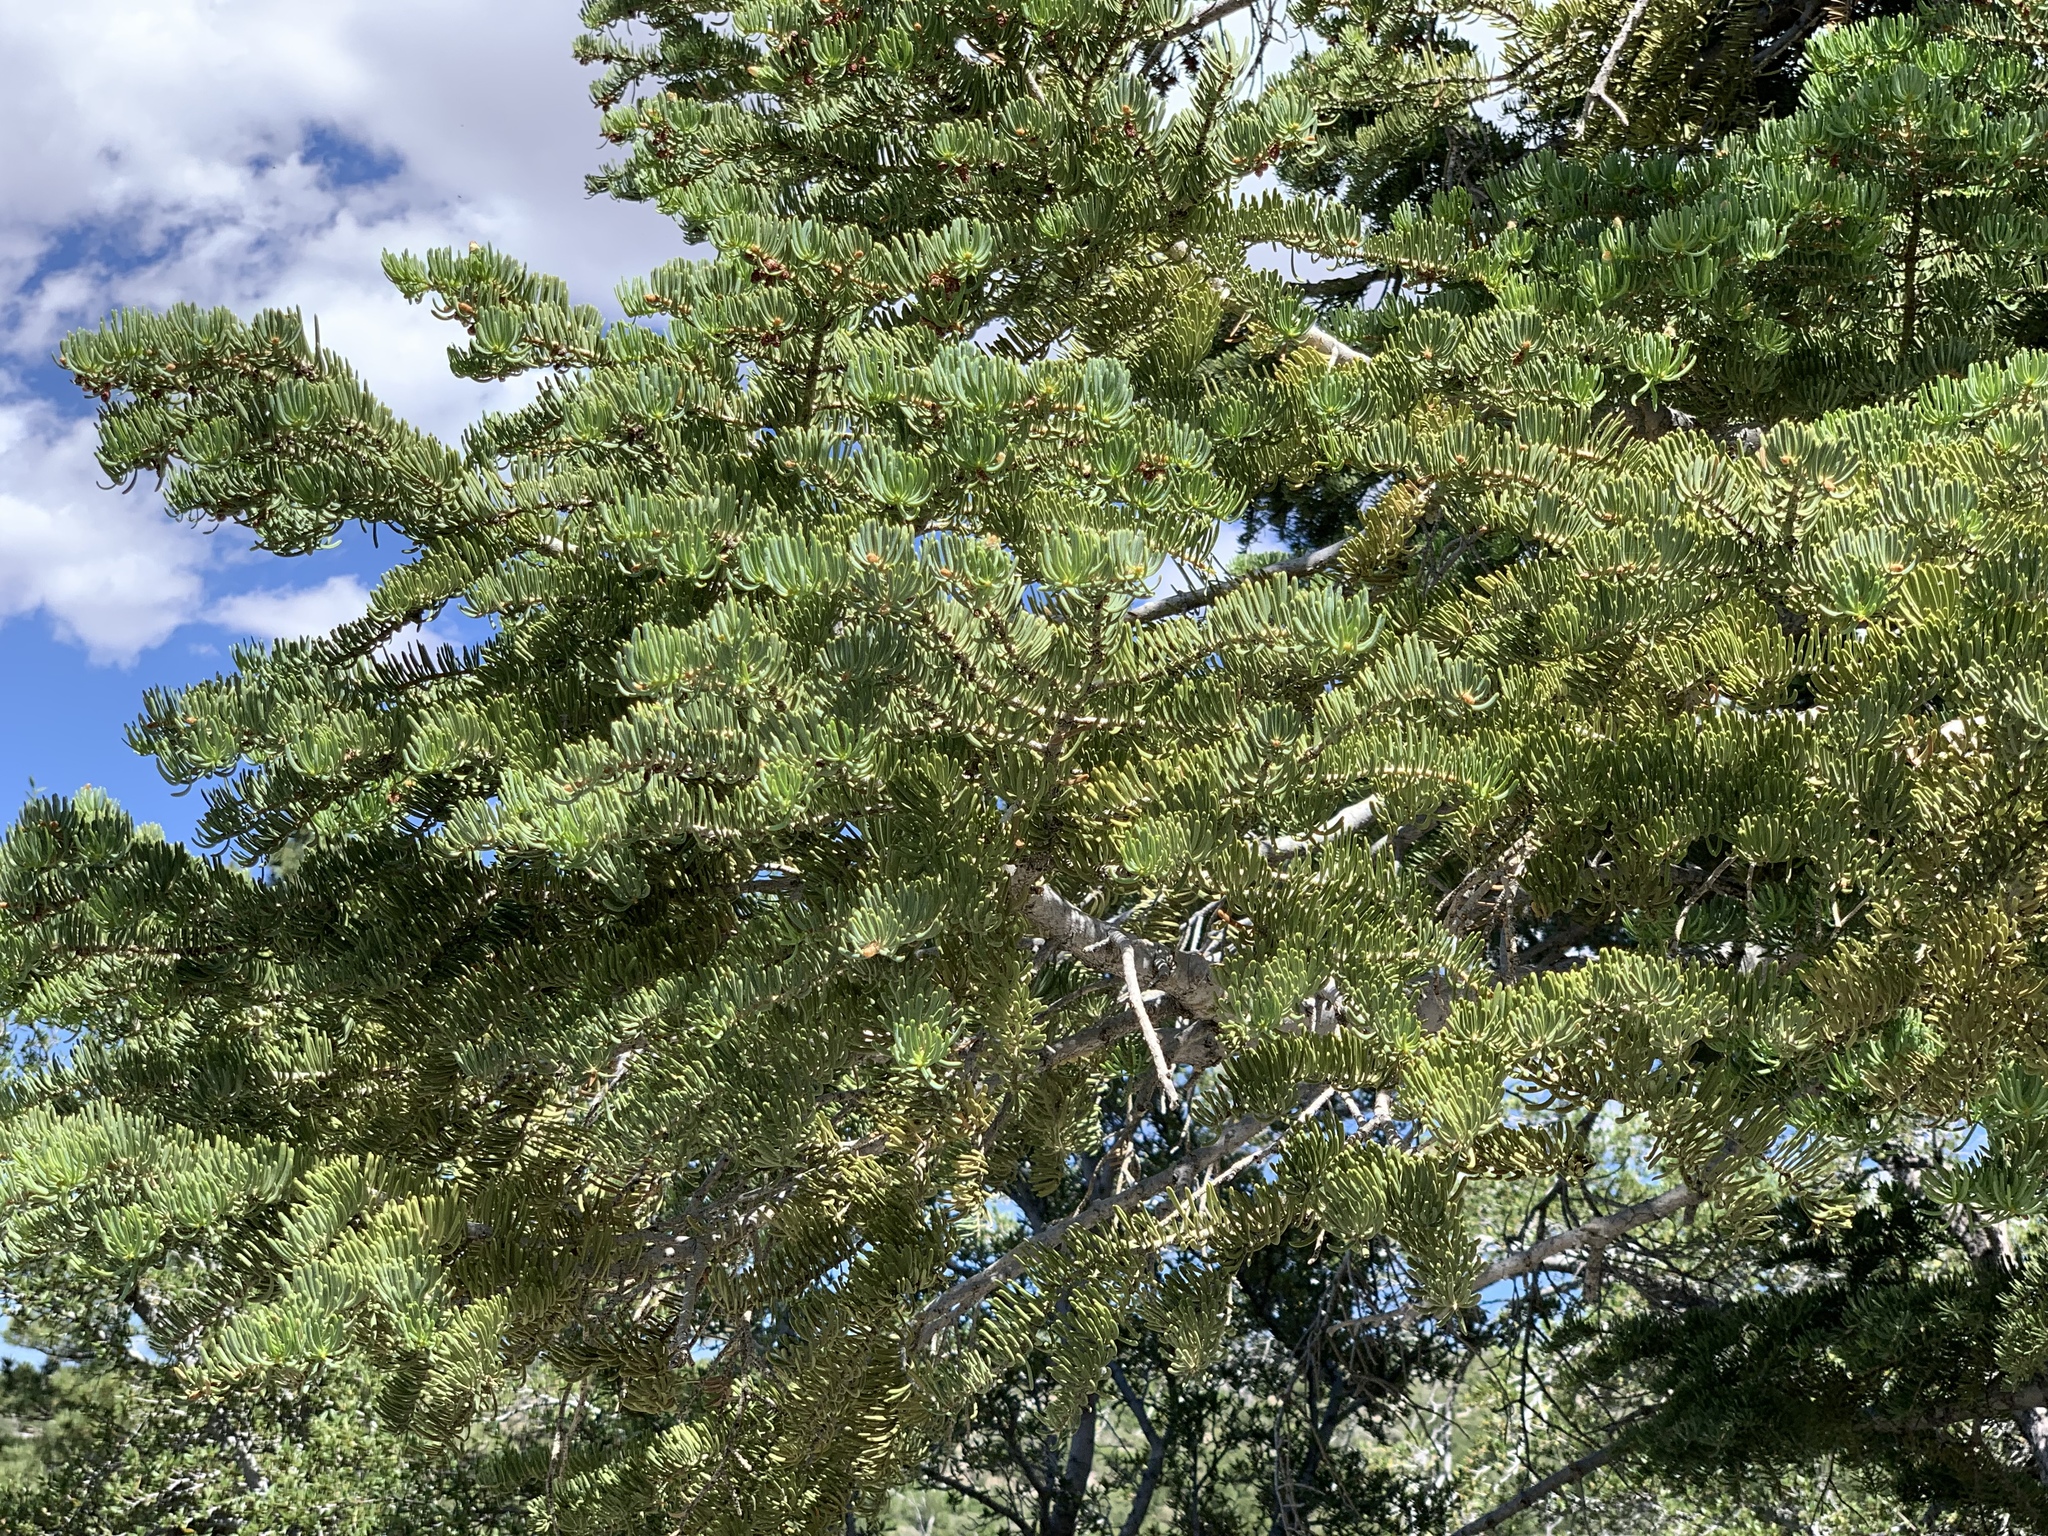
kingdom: Plantae
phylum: Tracheophyta
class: Pinopsida
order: Pinales
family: Pinaceae
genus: Abies
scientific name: Abies concolor
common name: Colorado fir
